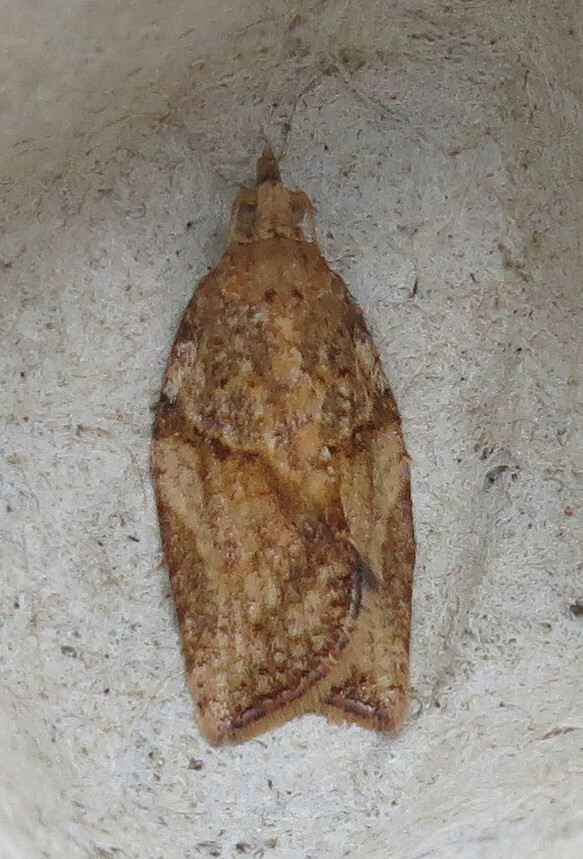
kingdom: Animalia
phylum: Arthropoda
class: Insecta
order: Lepidoptera
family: Tortricidae
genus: Epiphyas
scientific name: Epiphyas postvittana
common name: Light brown apple moth
